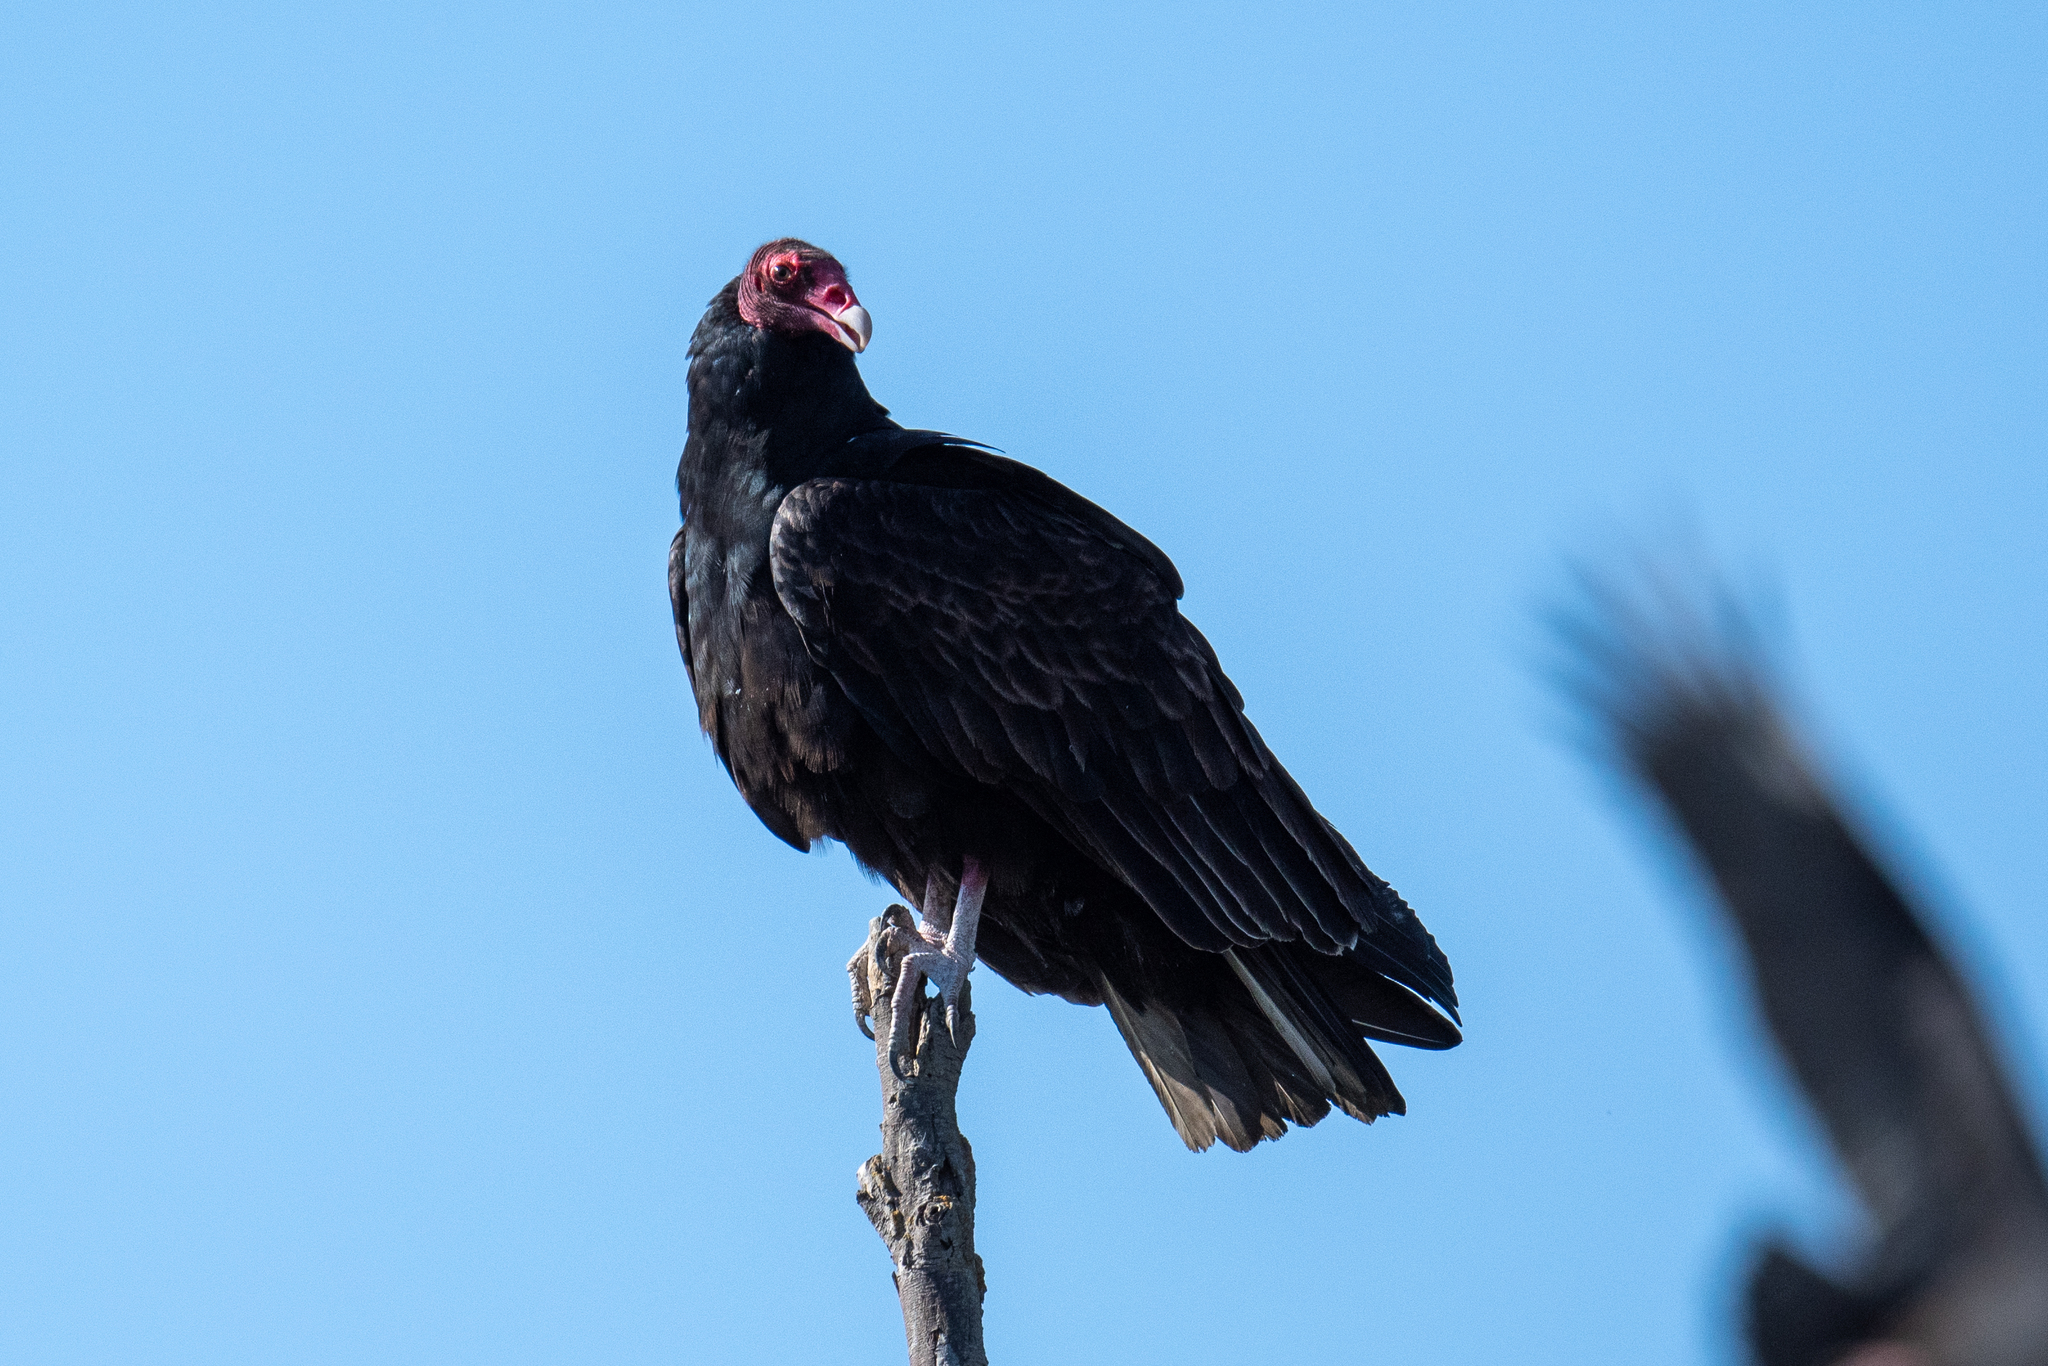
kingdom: Animalia
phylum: Chordata
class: Aves
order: Accipitriformes
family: Cathartidae
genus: Cathartes
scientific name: Cathartes aura
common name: Turkey vulture
